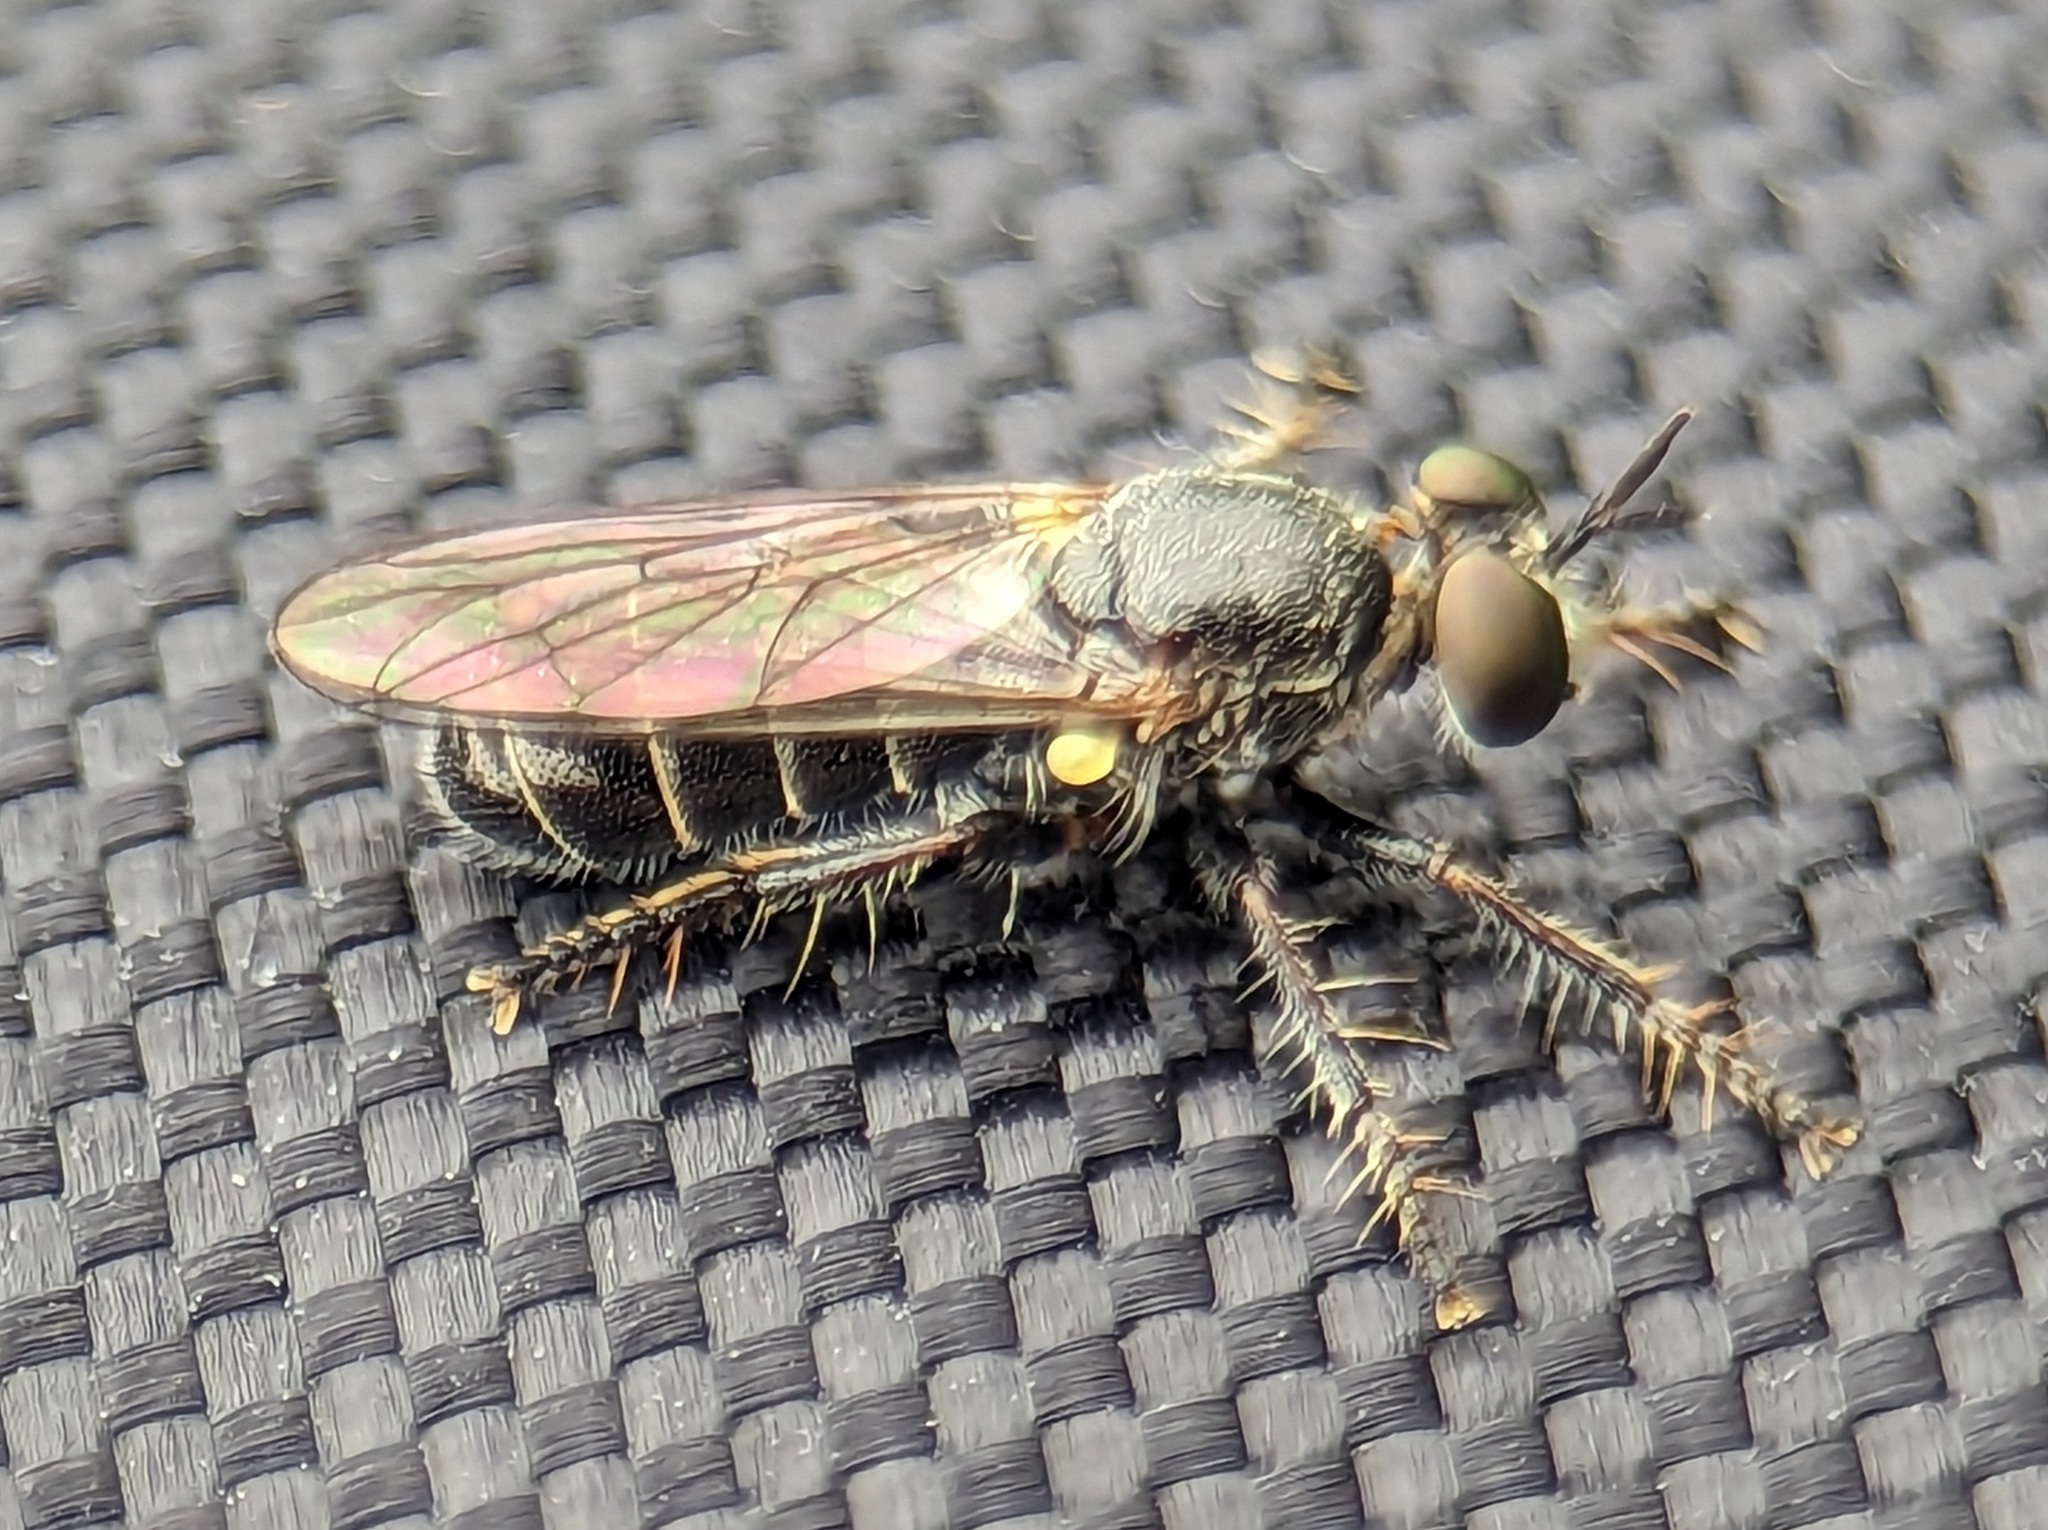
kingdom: Animalia
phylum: Arthropoda
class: Insecta
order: Diptera
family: Asilidae
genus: Atomosia
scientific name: Atomosia puella
